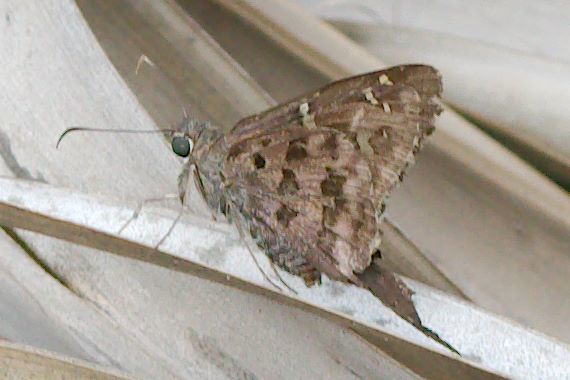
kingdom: Animalia
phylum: Arthropoda
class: Insecta
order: Lepidoptera
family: Hesperiidae
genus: Thorybes
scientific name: Thorybes
